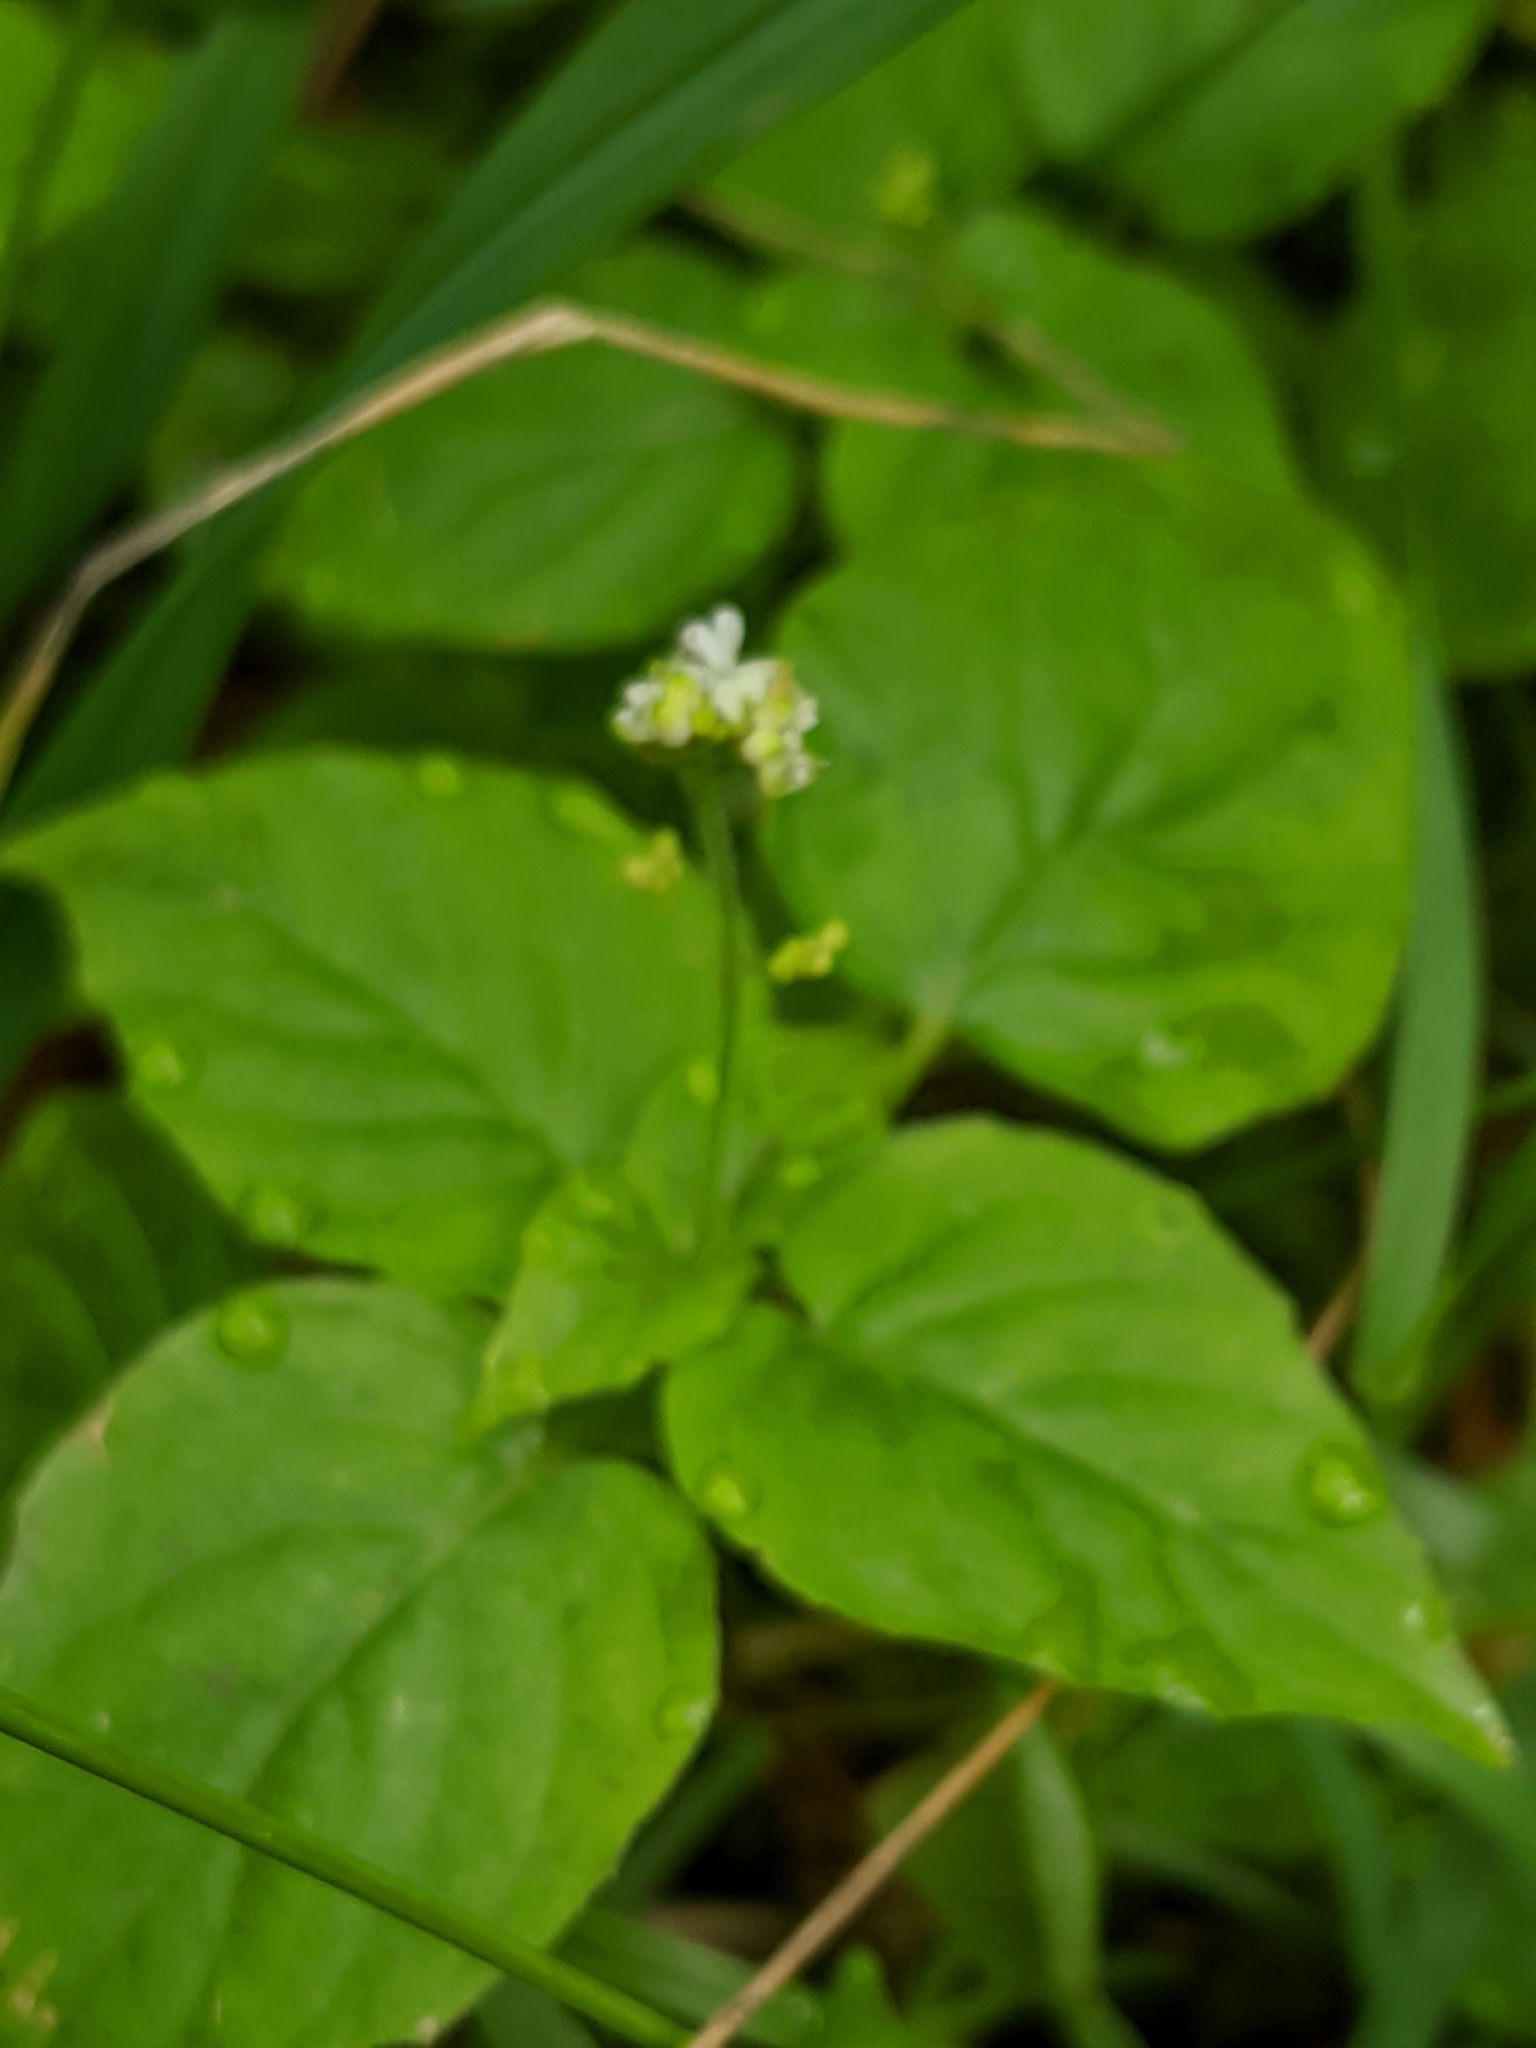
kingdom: Plantae
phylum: Tracheophyta
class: Magnoliopsida
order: Myrtales
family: Onagraceae
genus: Circaea
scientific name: Circaea alpina
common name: Alpine enchanter's-nightshade
